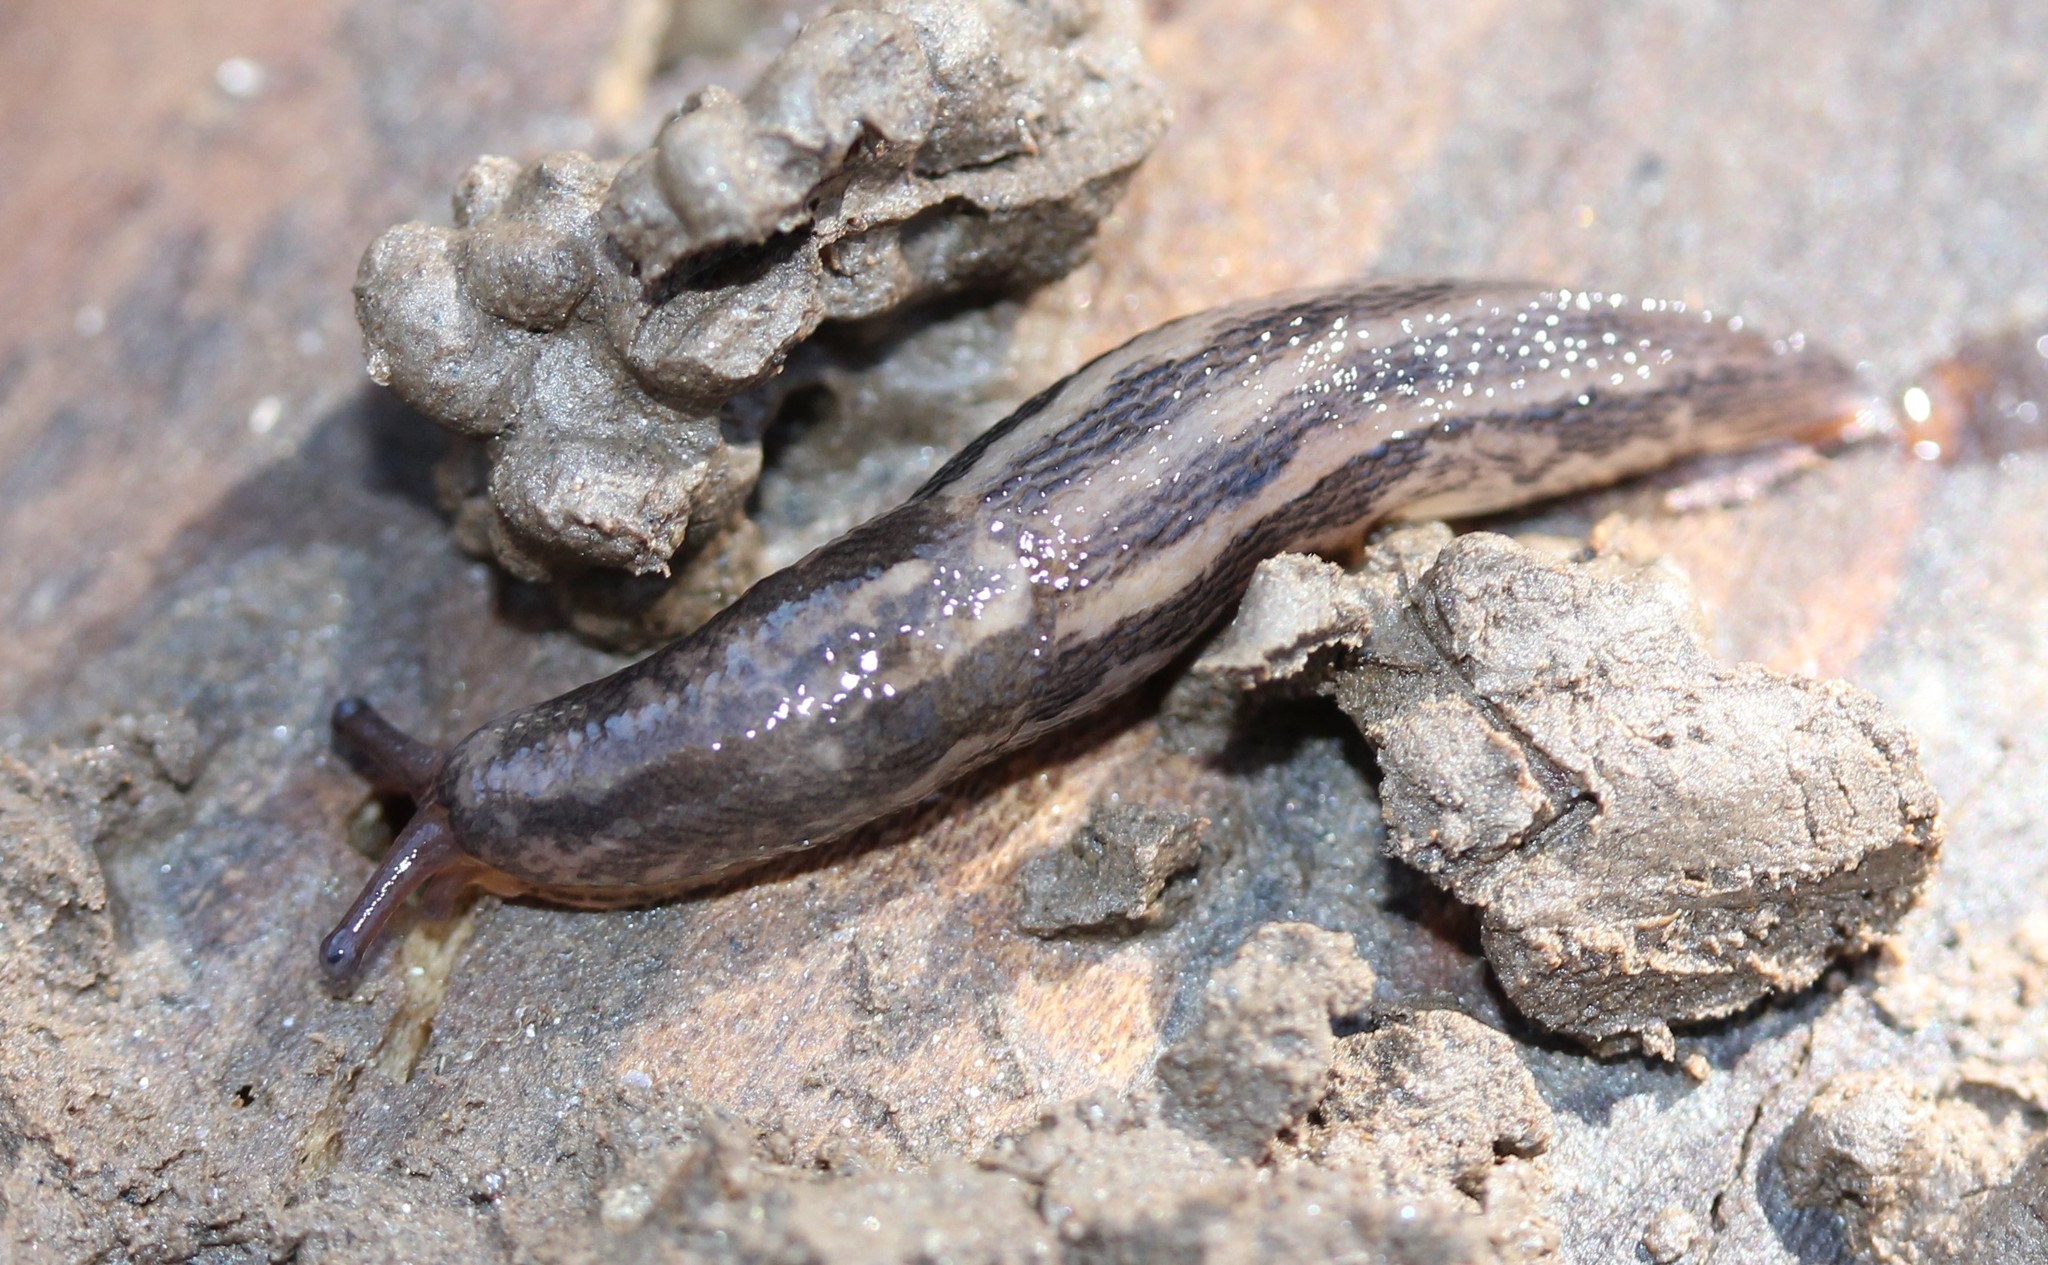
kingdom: Animalia
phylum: Mollusca
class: Gastropoda
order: Stylommatophora
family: Limacidae
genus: Limax
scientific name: Limax maximus
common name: Great grey slug
